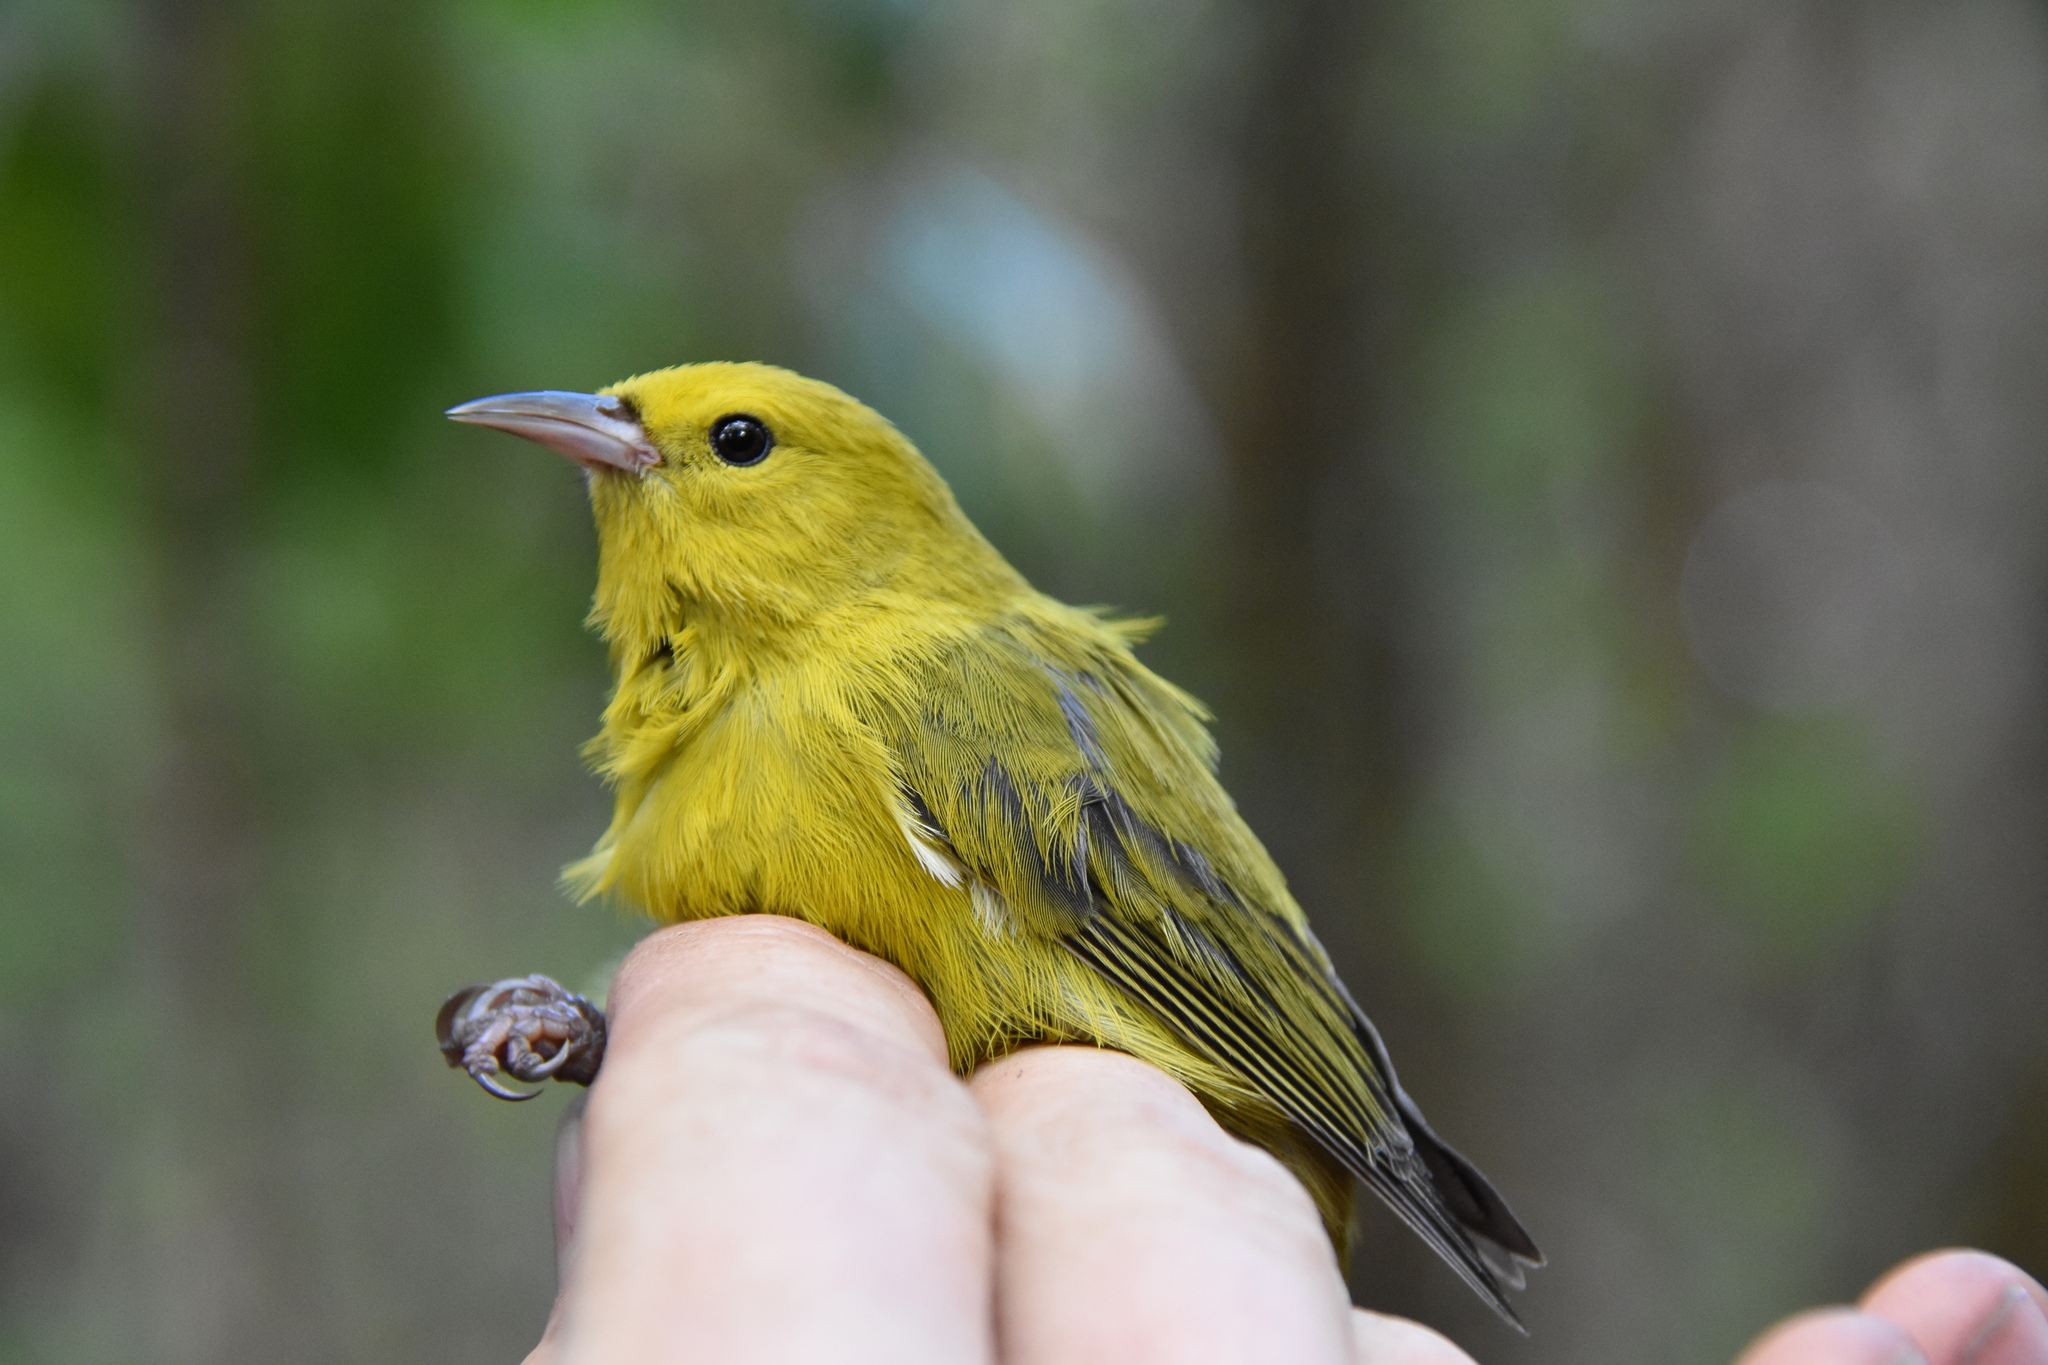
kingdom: Animalia
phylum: Chordata
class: Aves
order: Passeriformes
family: Fringillidae
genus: Magumma
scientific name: Magumma parva
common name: Anianiau
